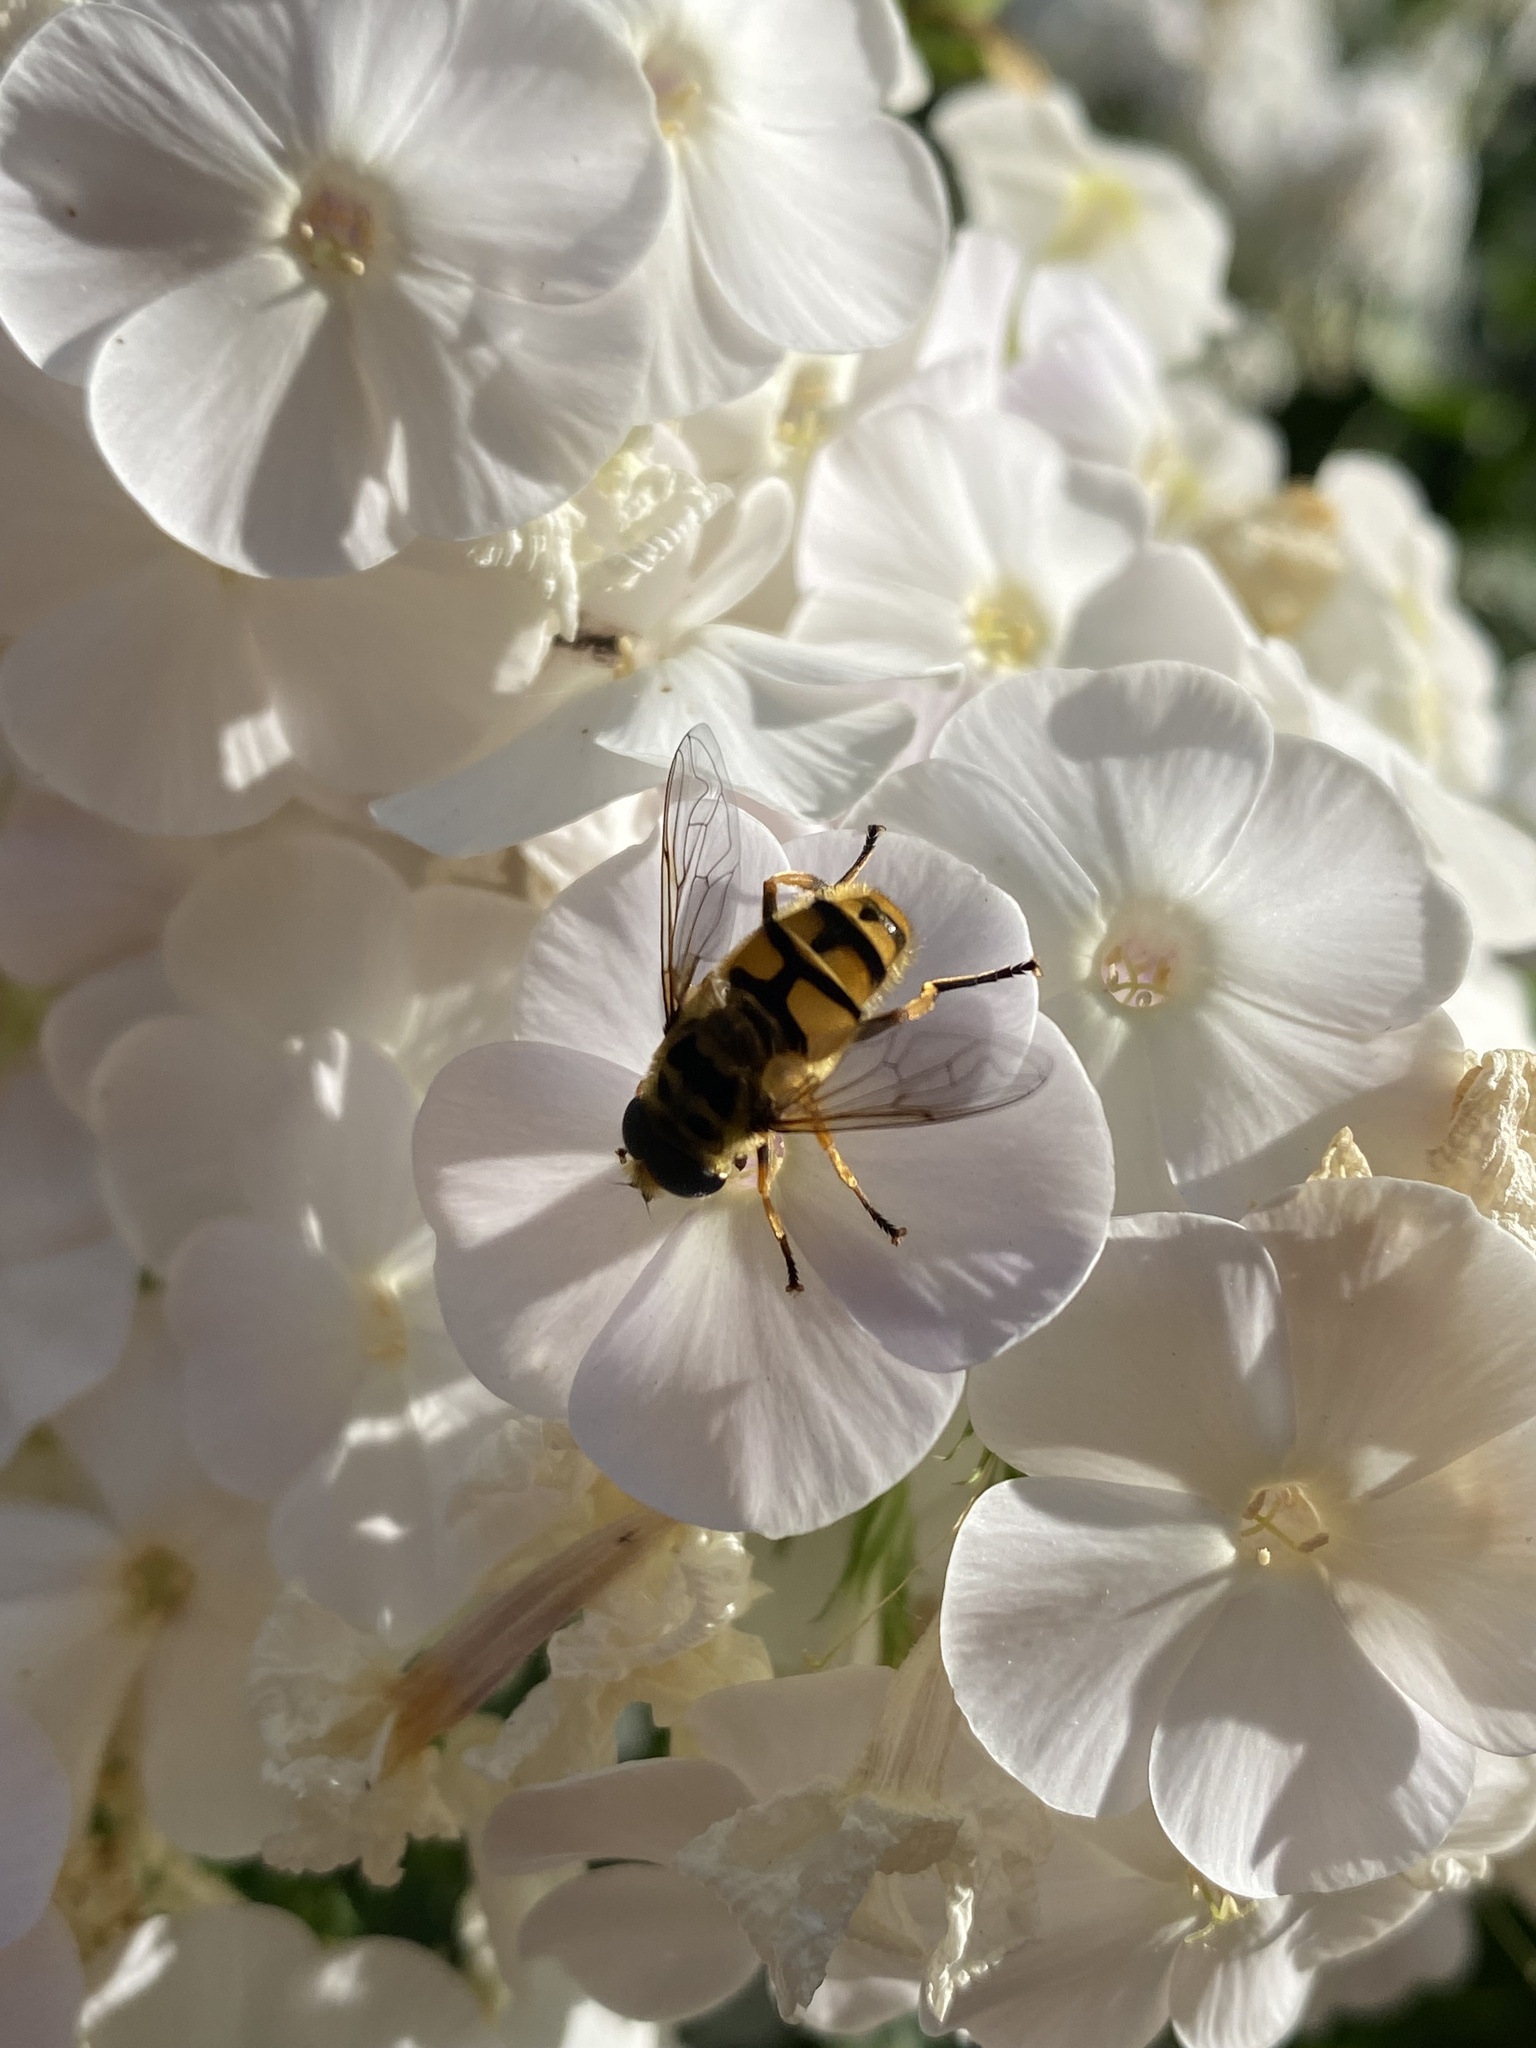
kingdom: Animalia
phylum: Arthropoda
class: Insecta
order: Diptera
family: Syrphidae
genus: Myathropa
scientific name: Myathropa florea
